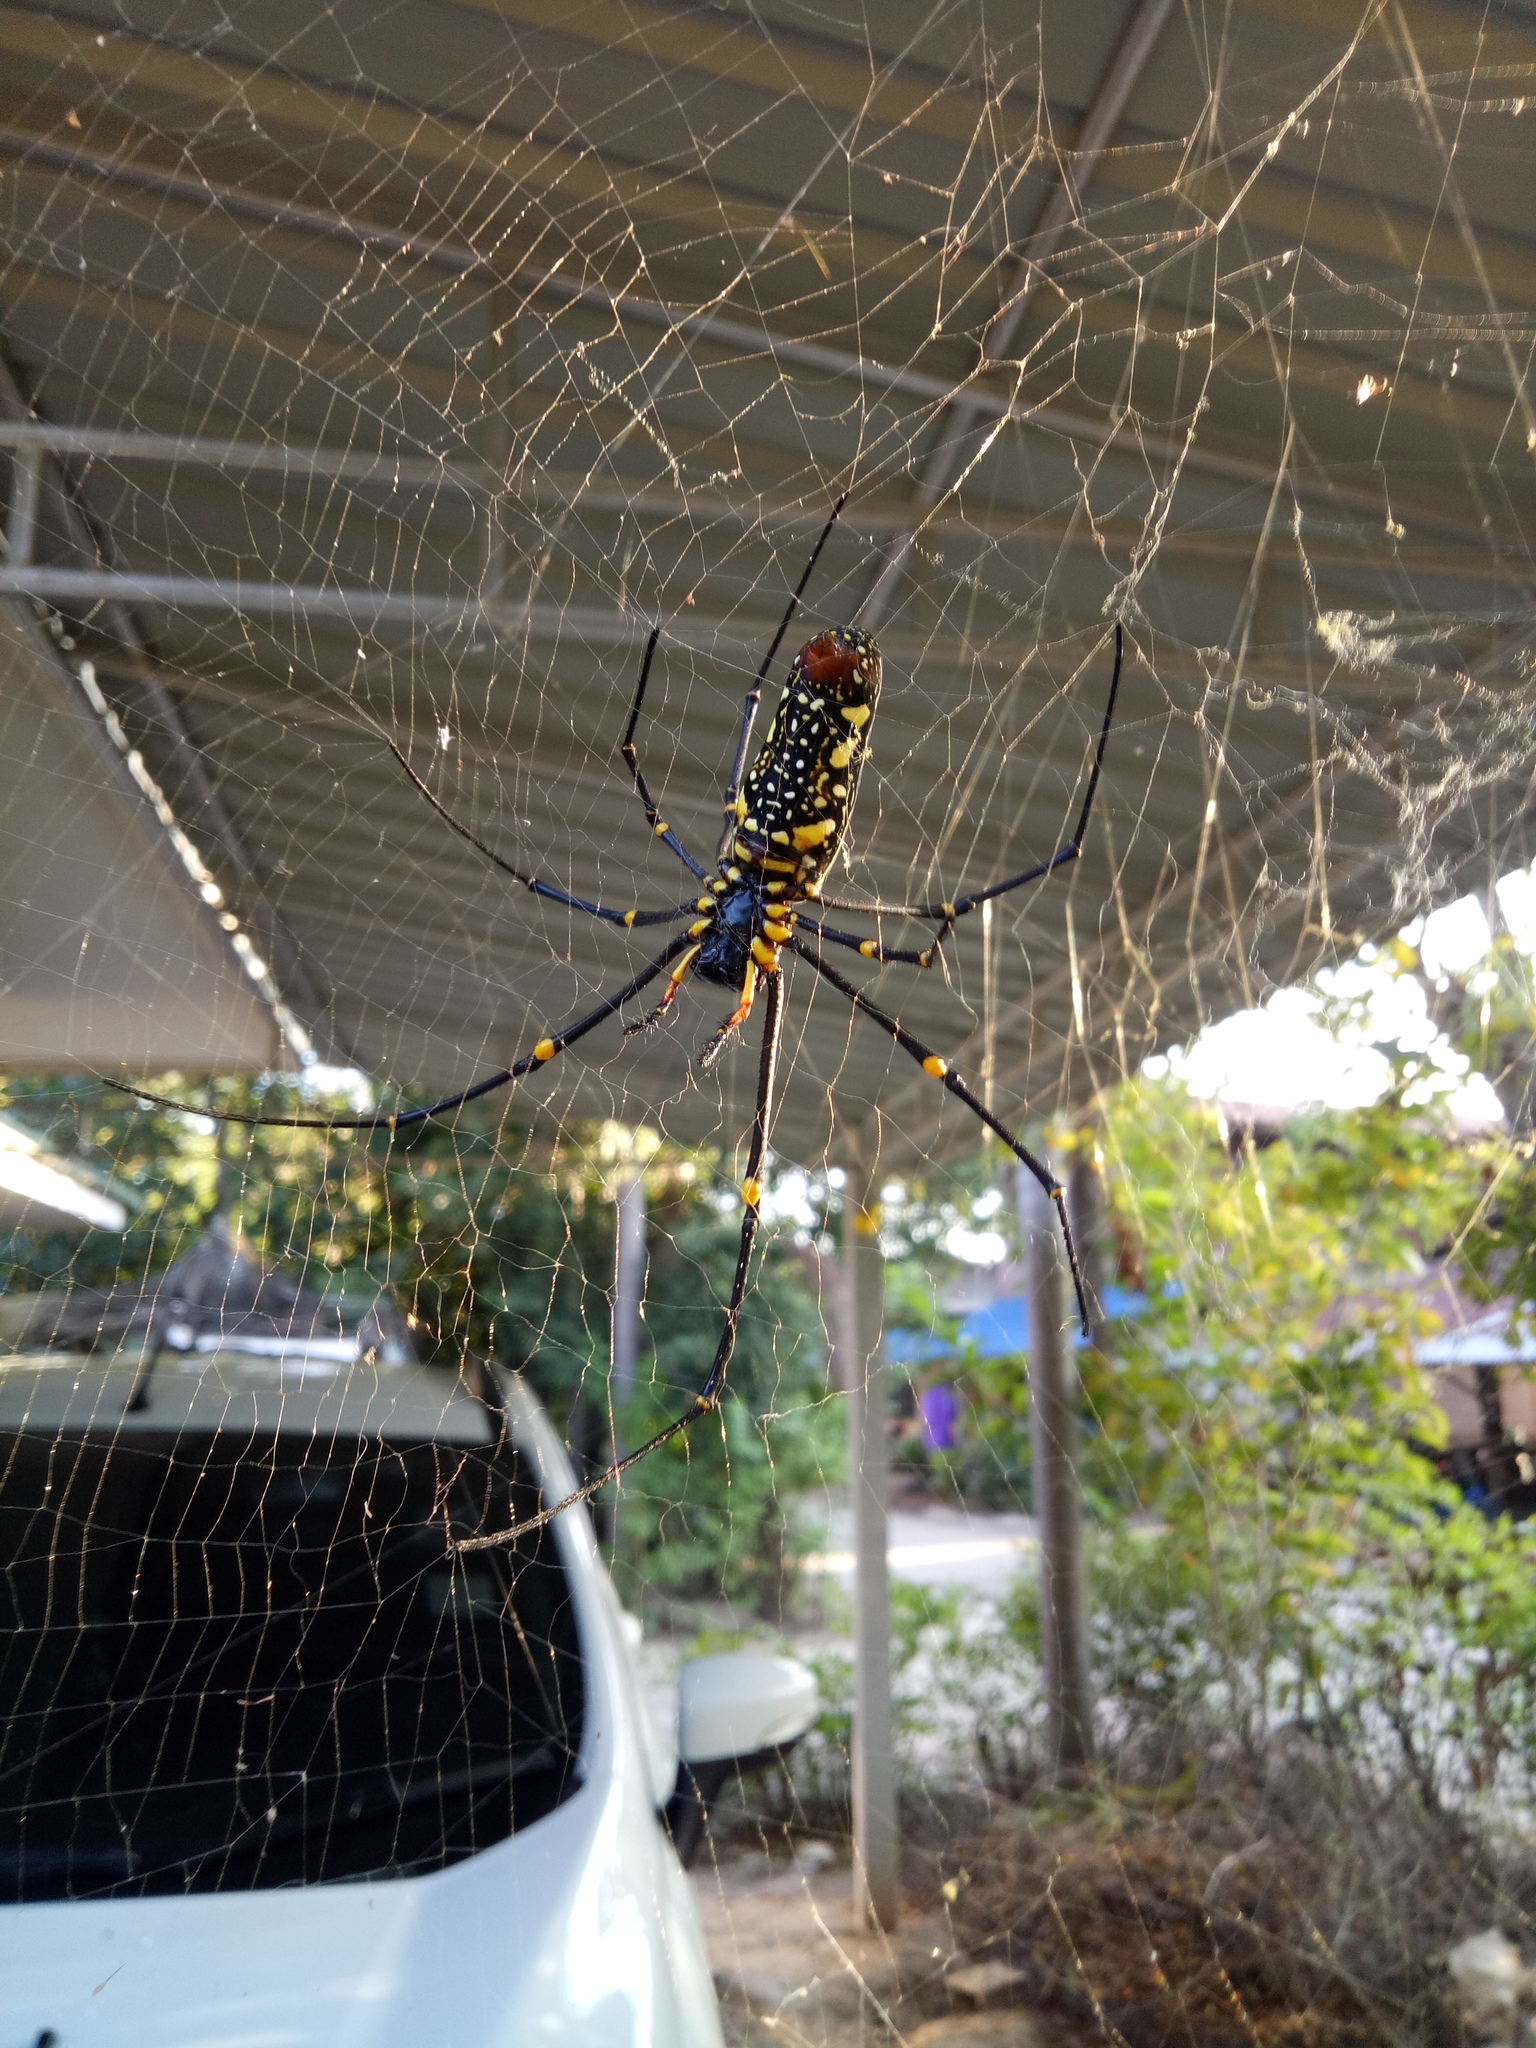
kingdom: Animalia
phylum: Arthropoda
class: Arachnida
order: Araneae
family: Araneidae
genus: Nephila
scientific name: Nephila pilipes
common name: Giant golden orb weaver
